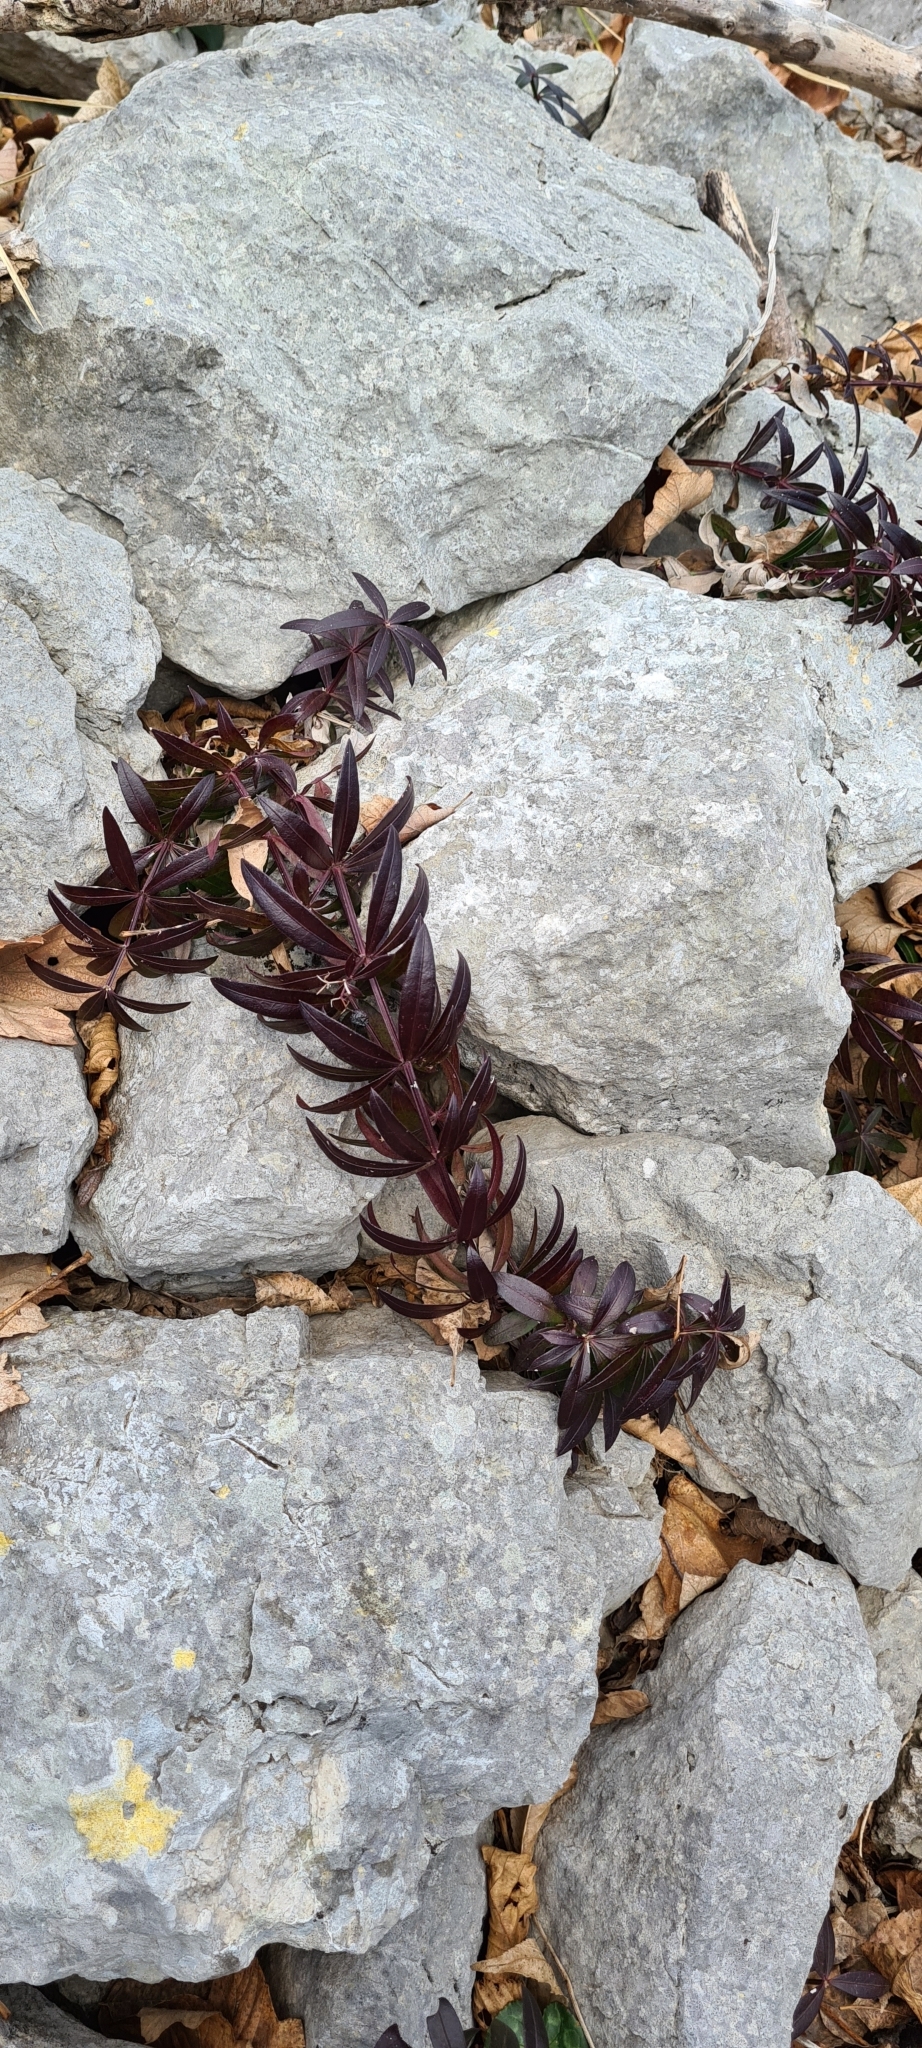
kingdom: Plantae
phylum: Tracheophyta
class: Magnoliopsida
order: Gentianales
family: Rubiaceae
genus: Rubia
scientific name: Rubia peregrina
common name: Wild madder
